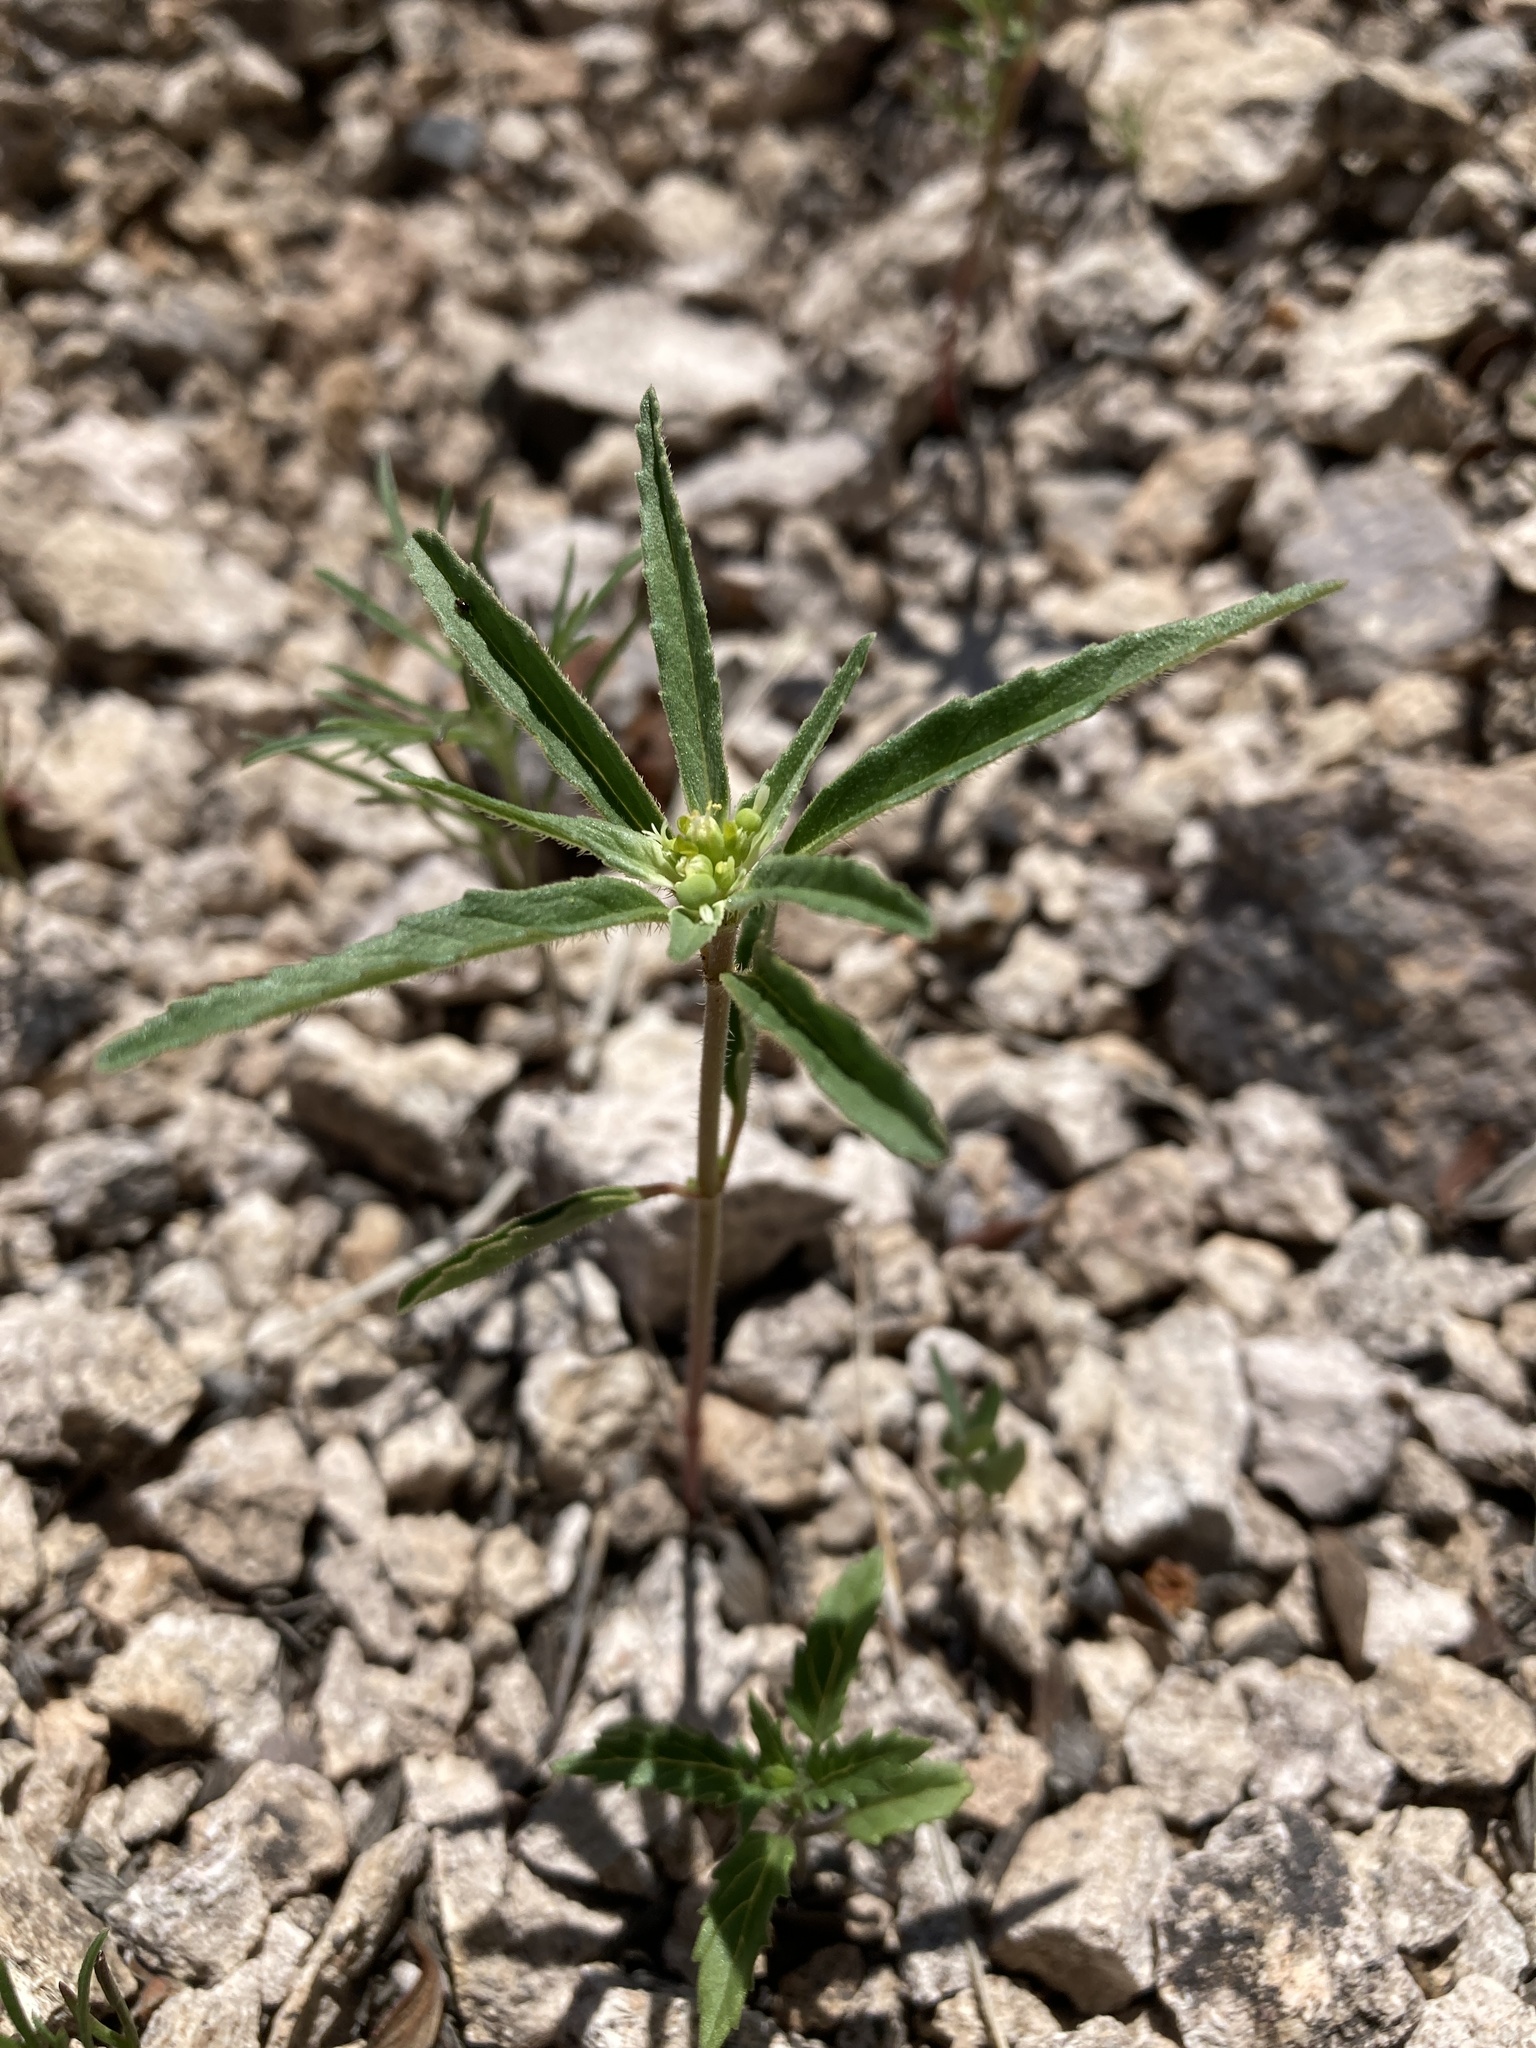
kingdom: Plantae
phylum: Tracheophyta
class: Magnoliopsida
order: Malpighiales
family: Euphorbiaceae
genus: Euphorbia
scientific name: Euphorbia davidii
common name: David's spurge
